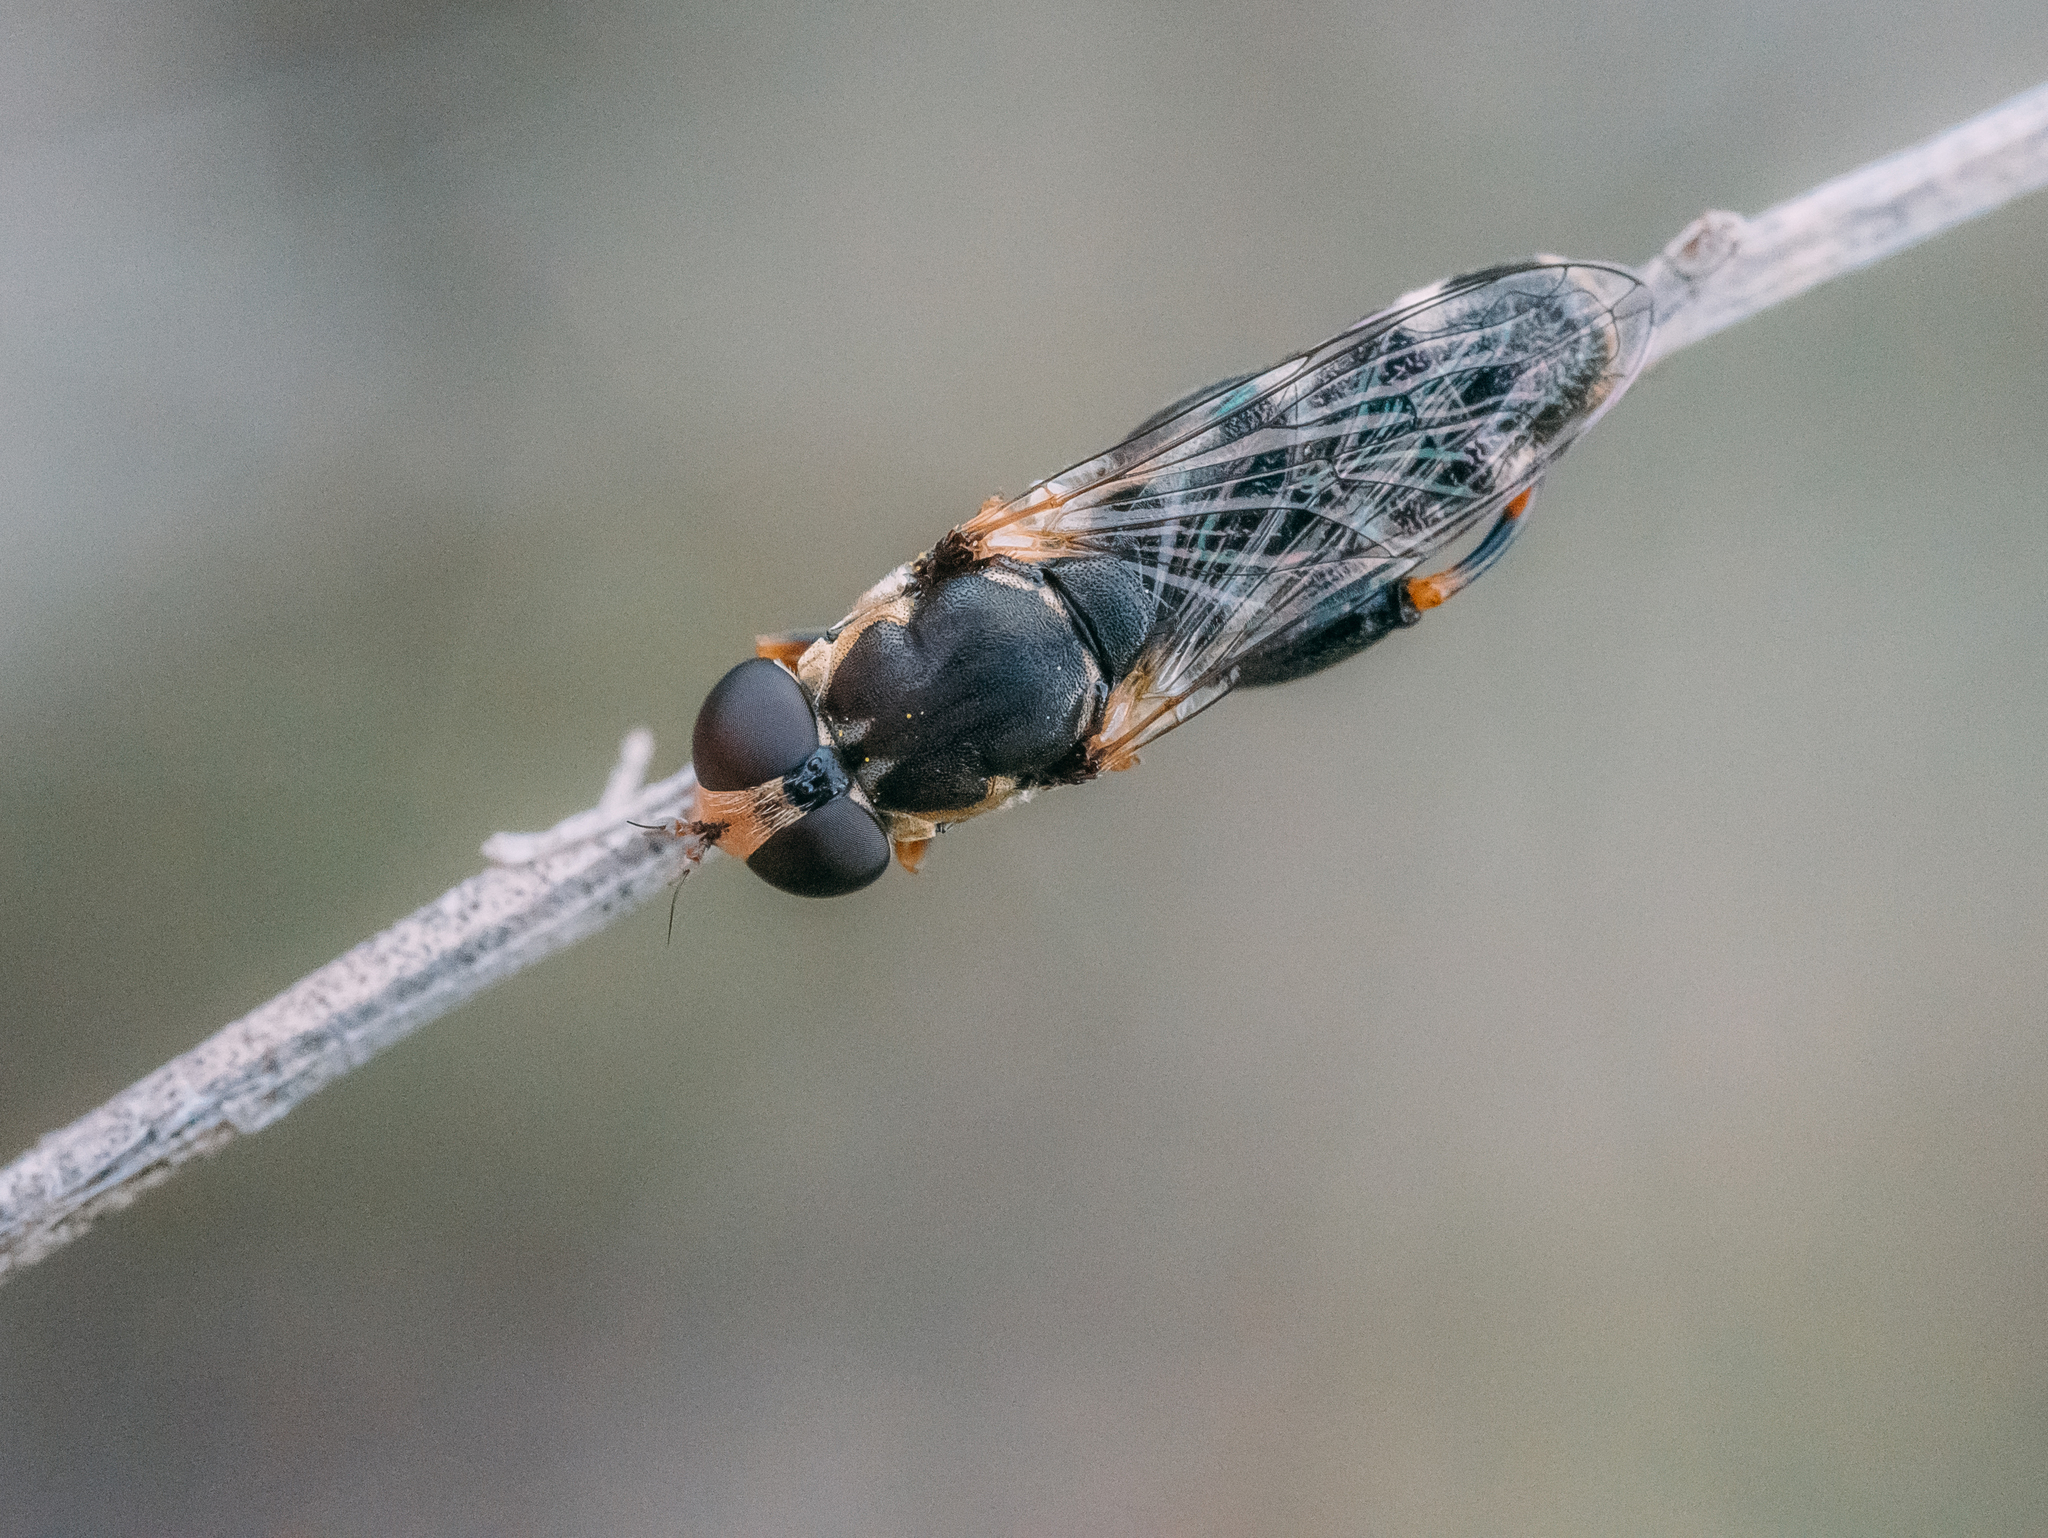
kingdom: Animalia
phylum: Arthropoda
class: Insecta
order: Diptera
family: Syrphidae
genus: Syritta
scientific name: Syritta pipiens
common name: Hover fly
